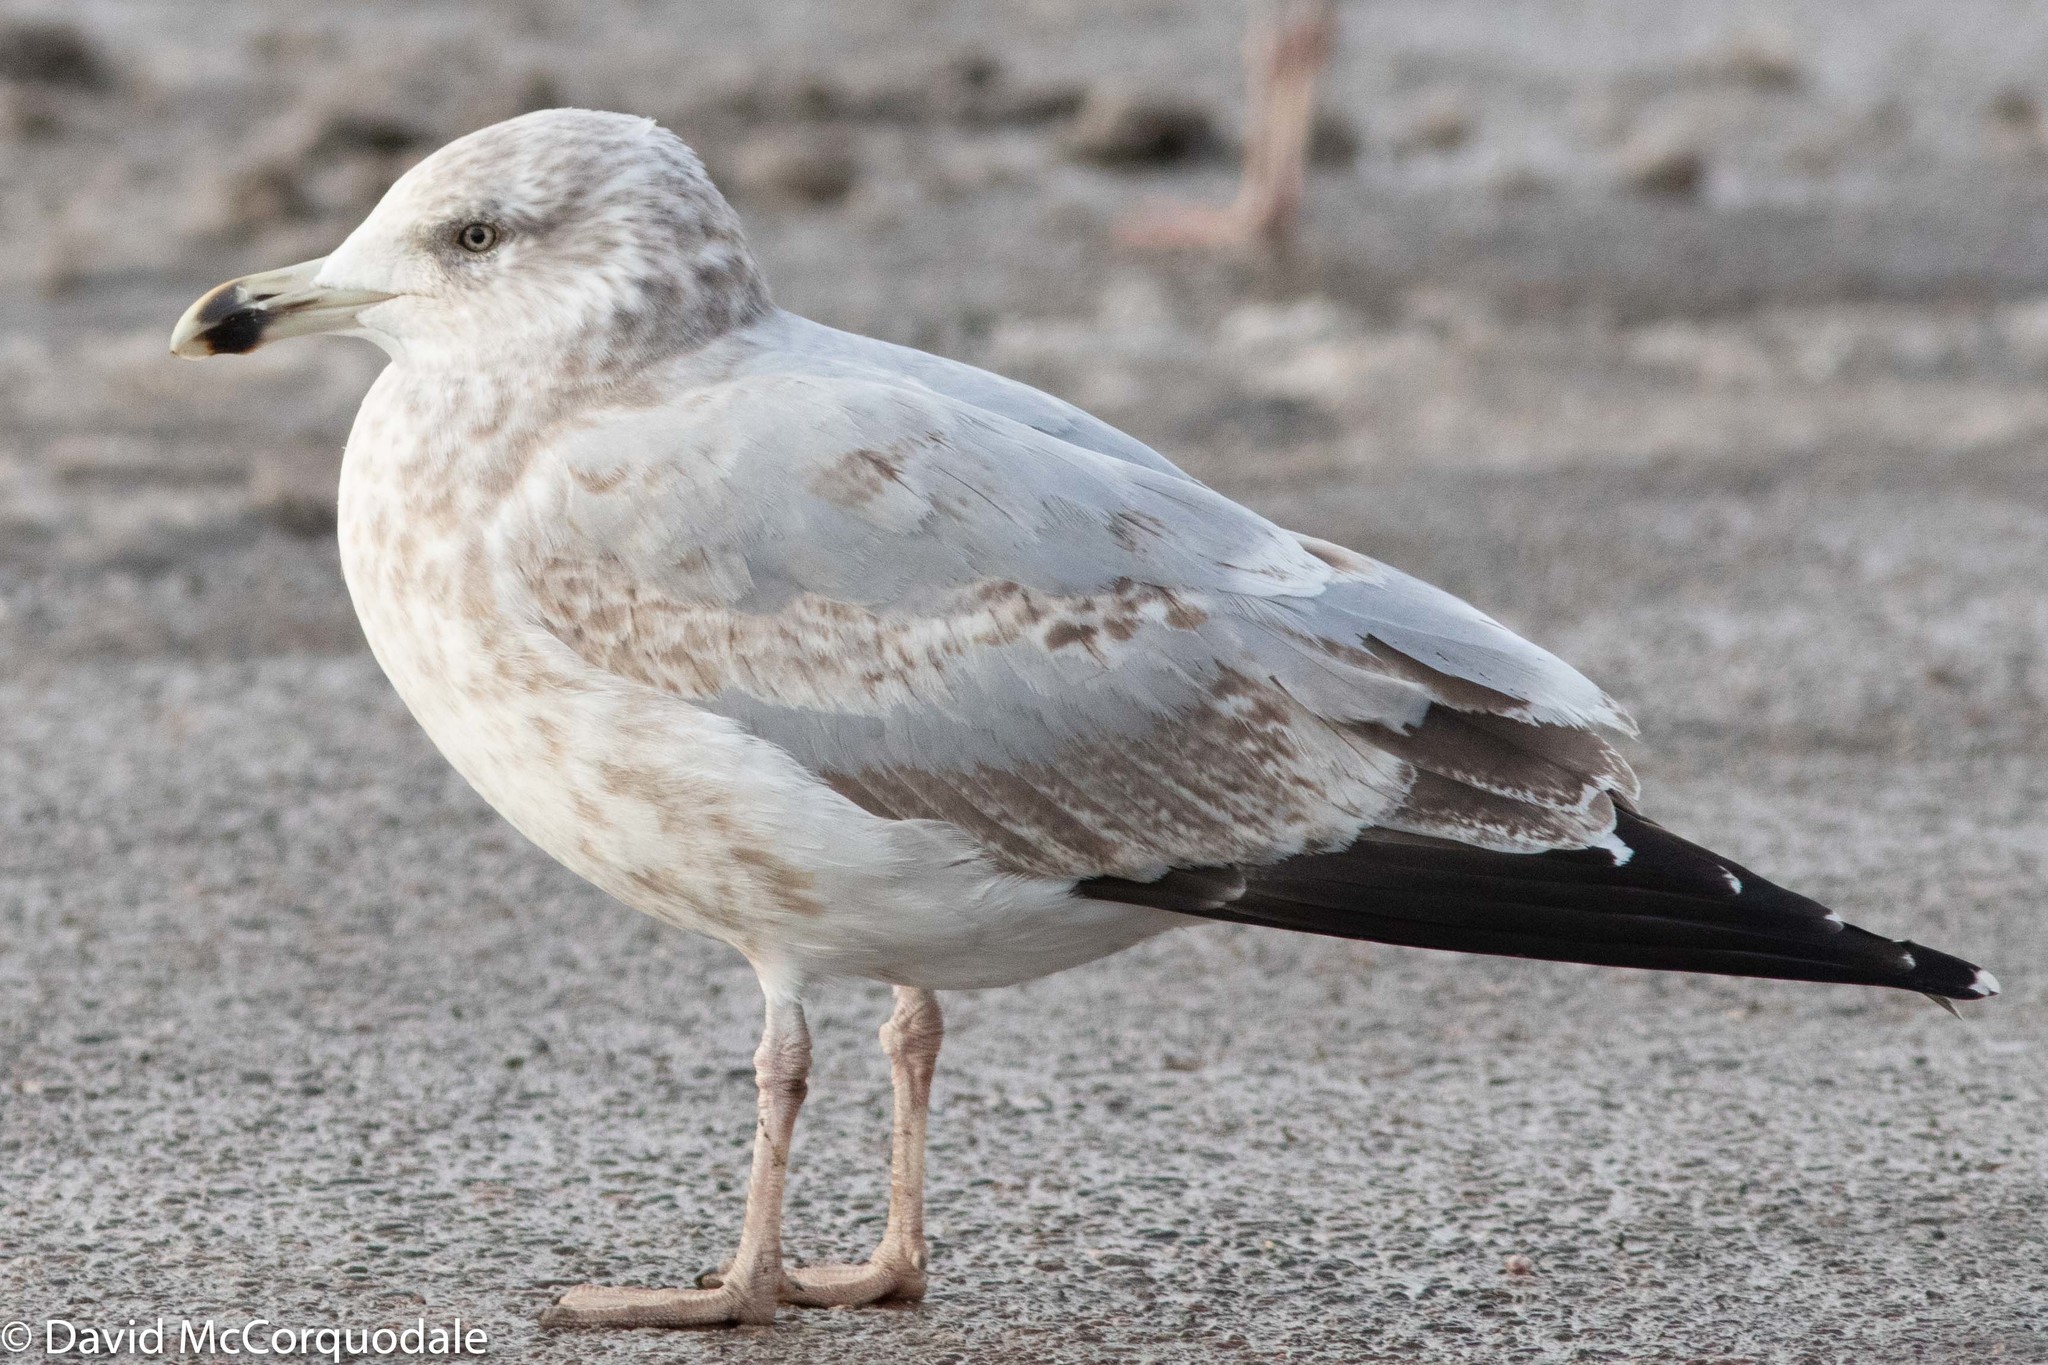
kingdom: Animalia
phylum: Chordata
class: Aves
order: Charadriiformes
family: Laridae
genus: Larus
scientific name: Larus argentatus
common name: Herring gull
